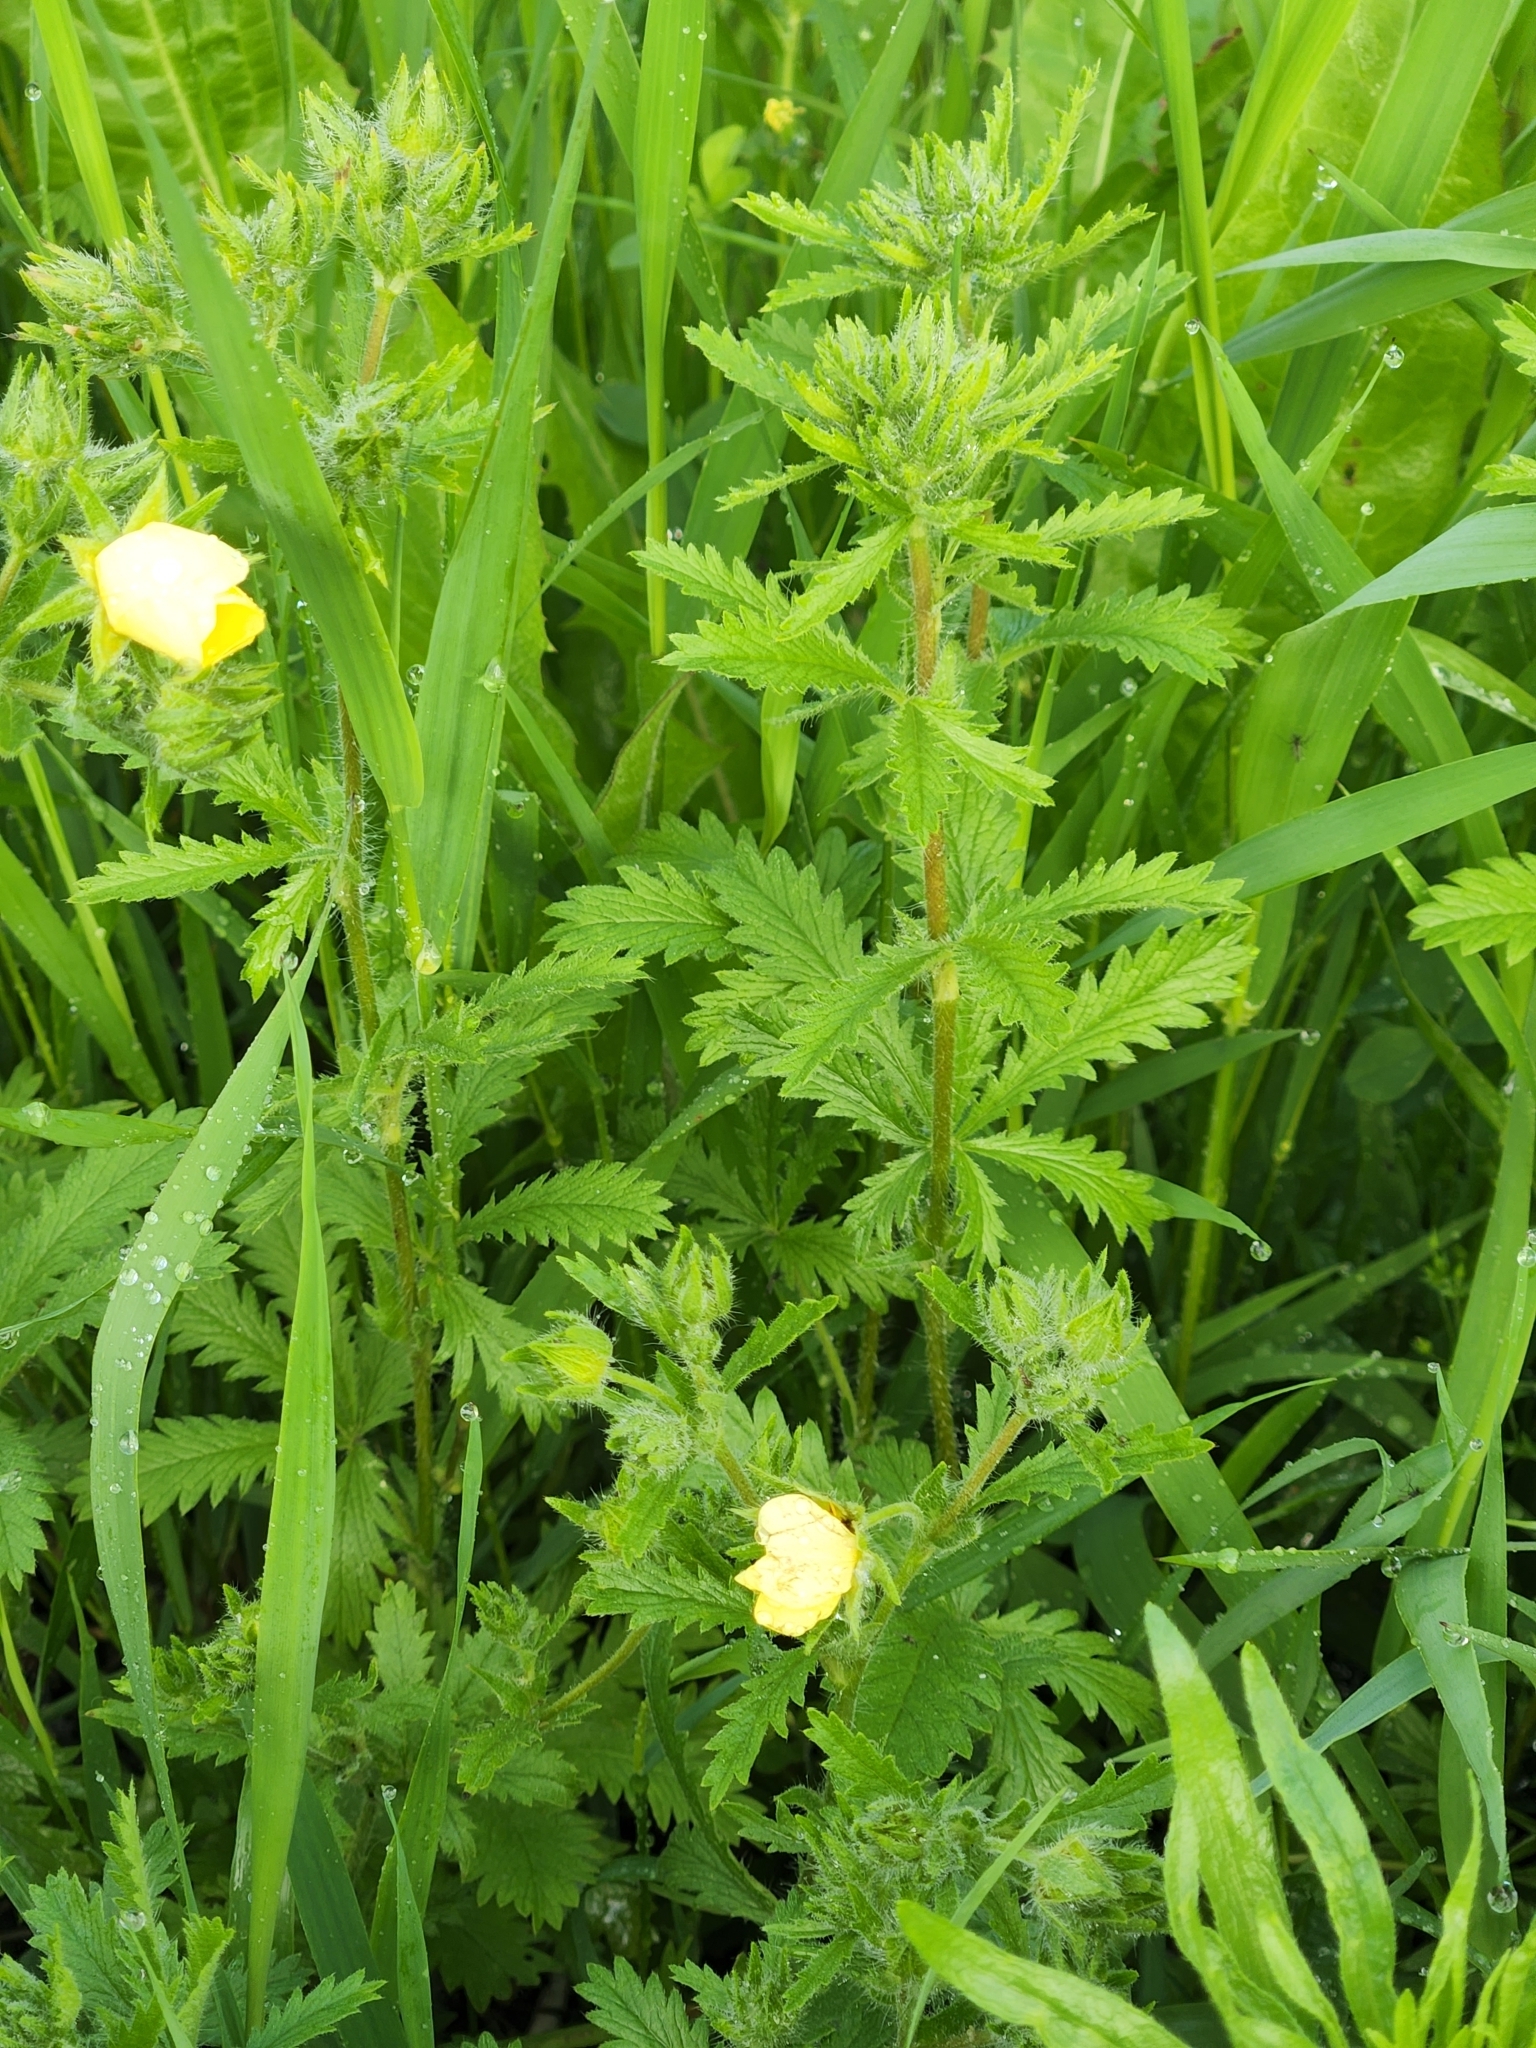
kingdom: Plantae
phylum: Tracheophyta
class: Magnoliopsida
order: Rosales
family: Rosaceae
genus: Potentilla
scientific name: Potentilla recta
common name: Sulphur cinquefoil
